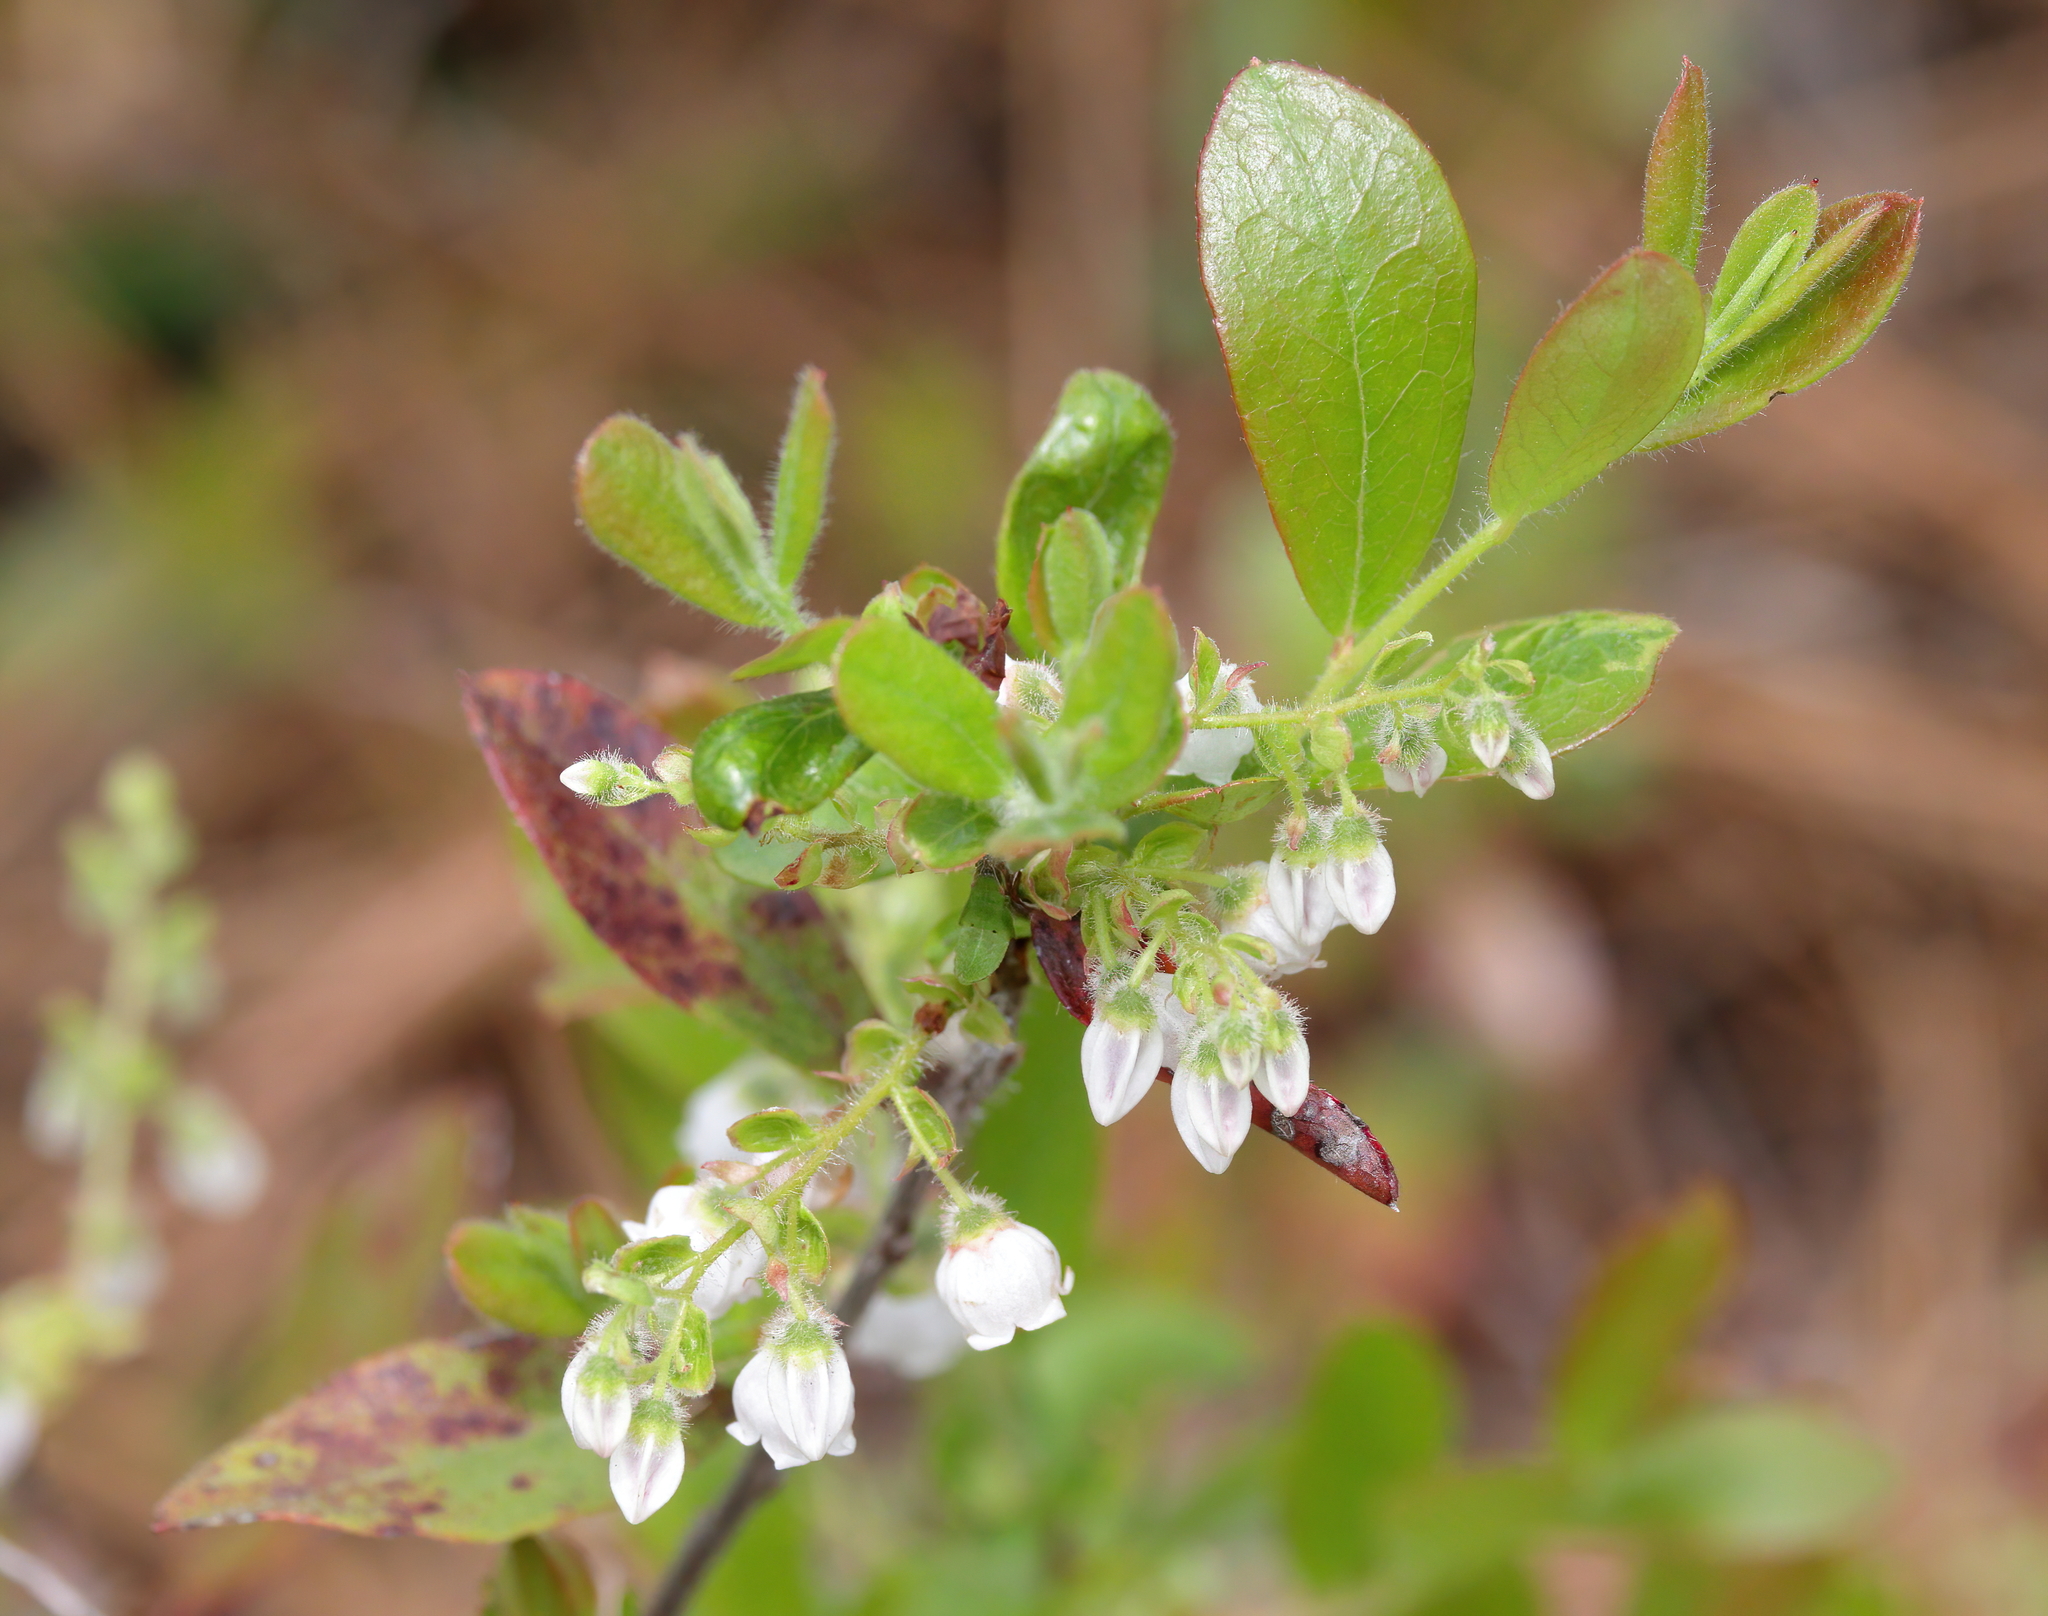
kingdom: Plantae
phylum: Tracheophyta
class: Magnoliopsida
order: Ericales
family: Ericaceae
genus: Gaylussacia
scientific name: Gaylussacia mosieri
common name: Hirsute huckleberry
